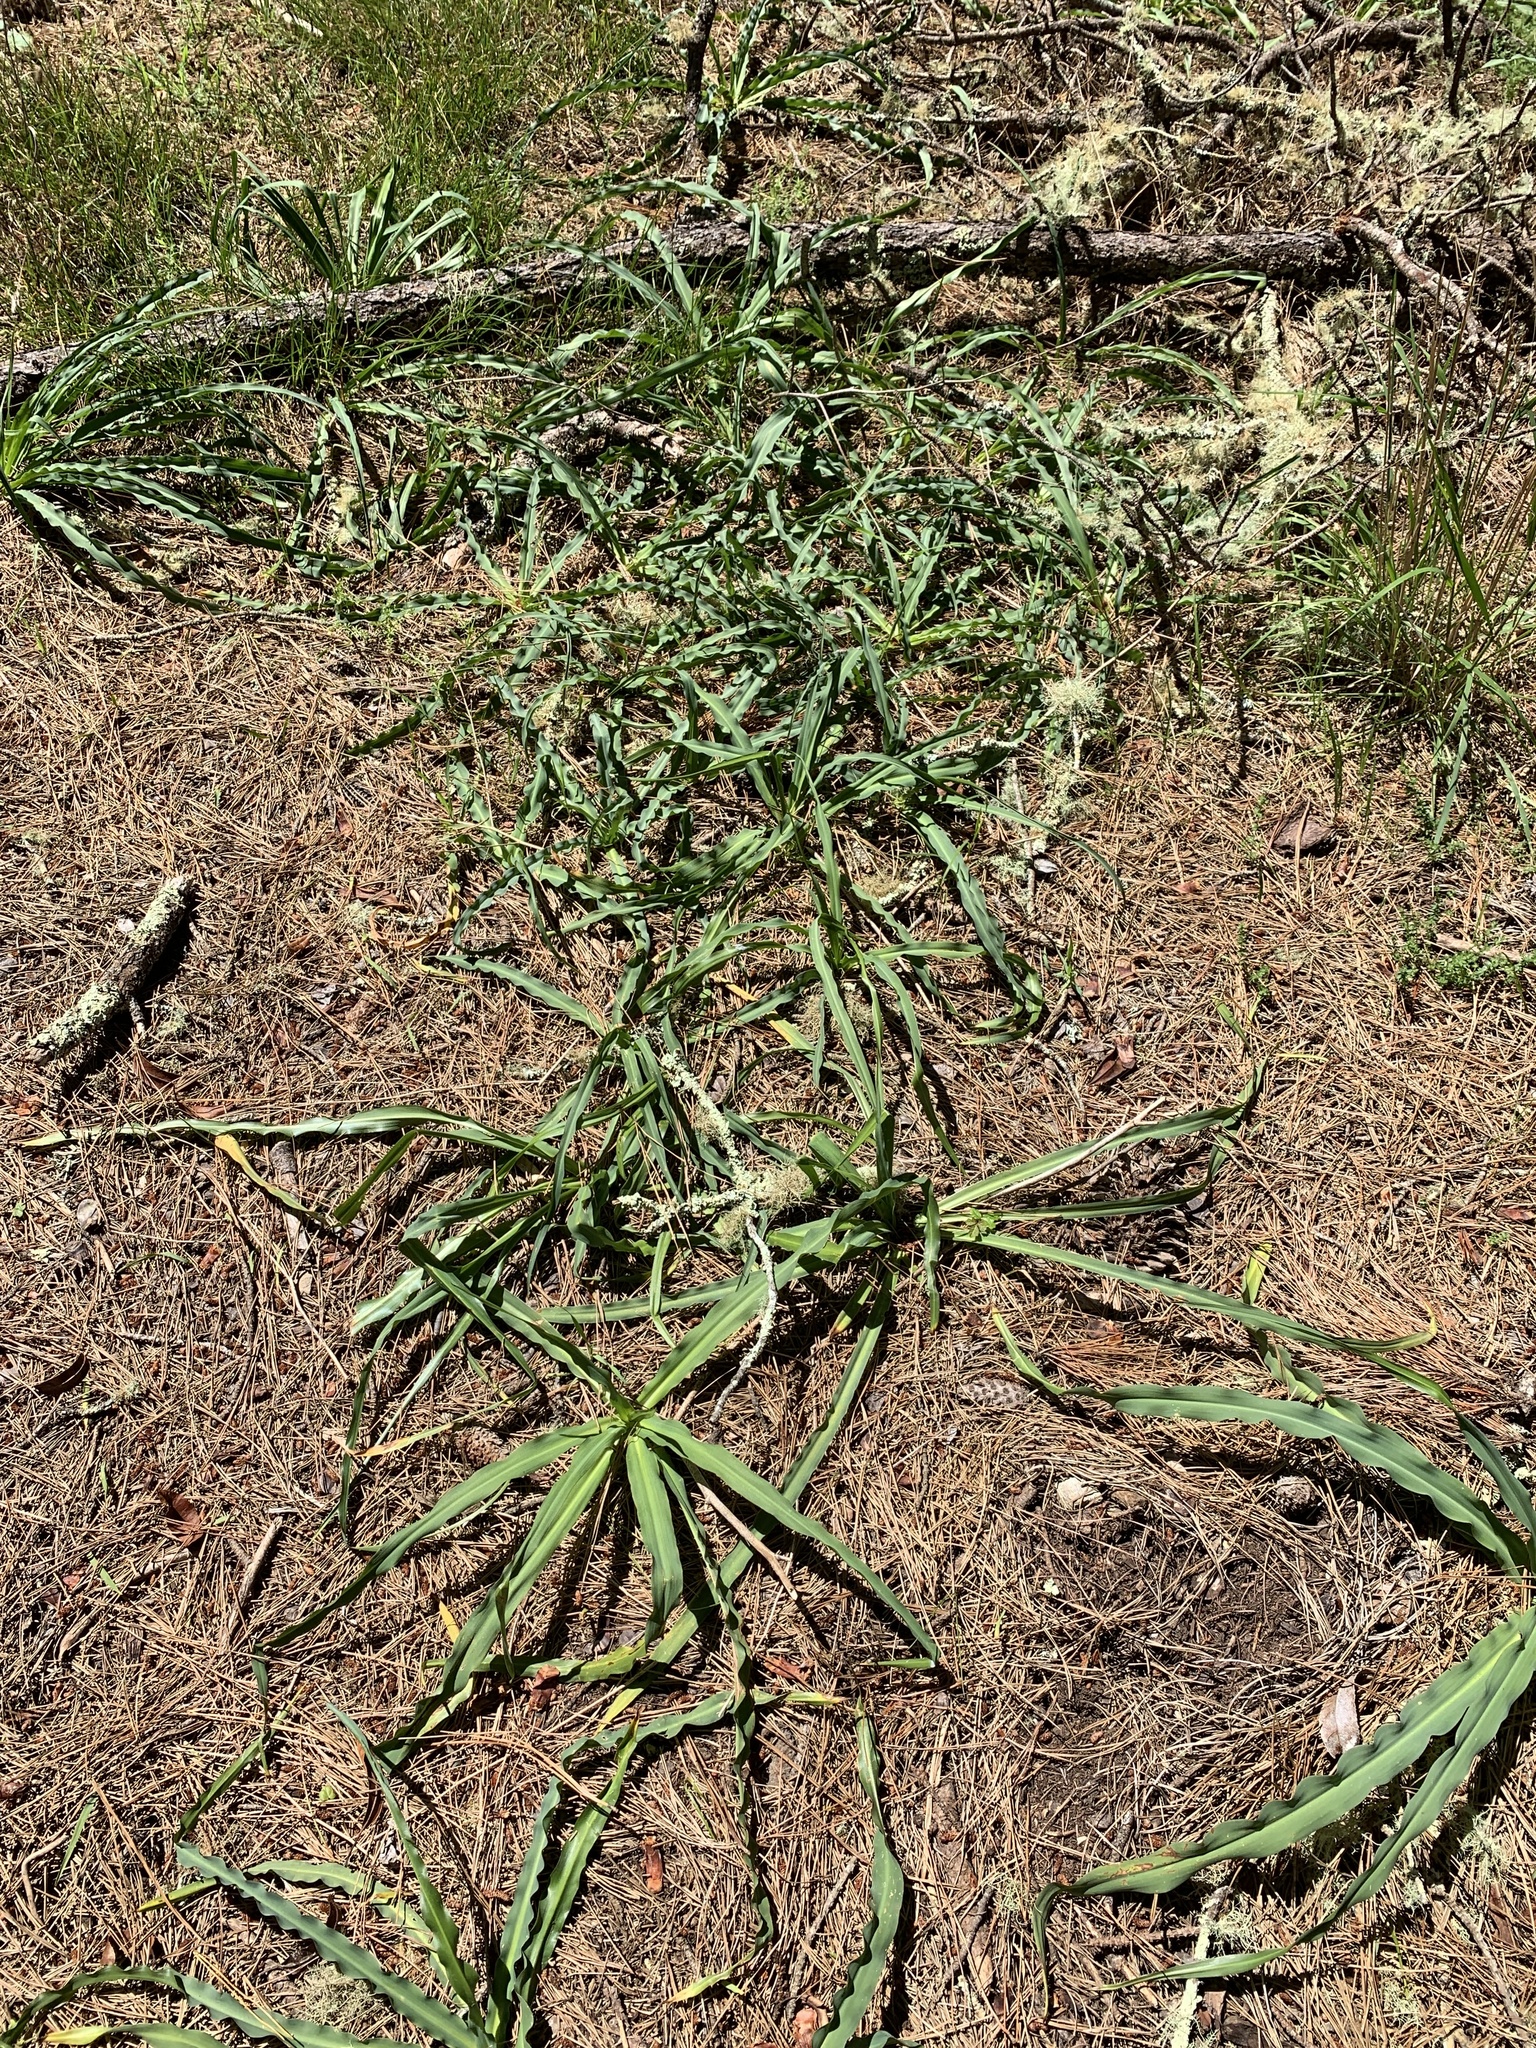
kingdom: Plantae
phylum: Tracheophyta
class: Liliopsida
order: Asparagales
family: Asparagaceae
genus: Chlorogalum
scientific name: Chlorogalum pomeridianum
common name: Amole
